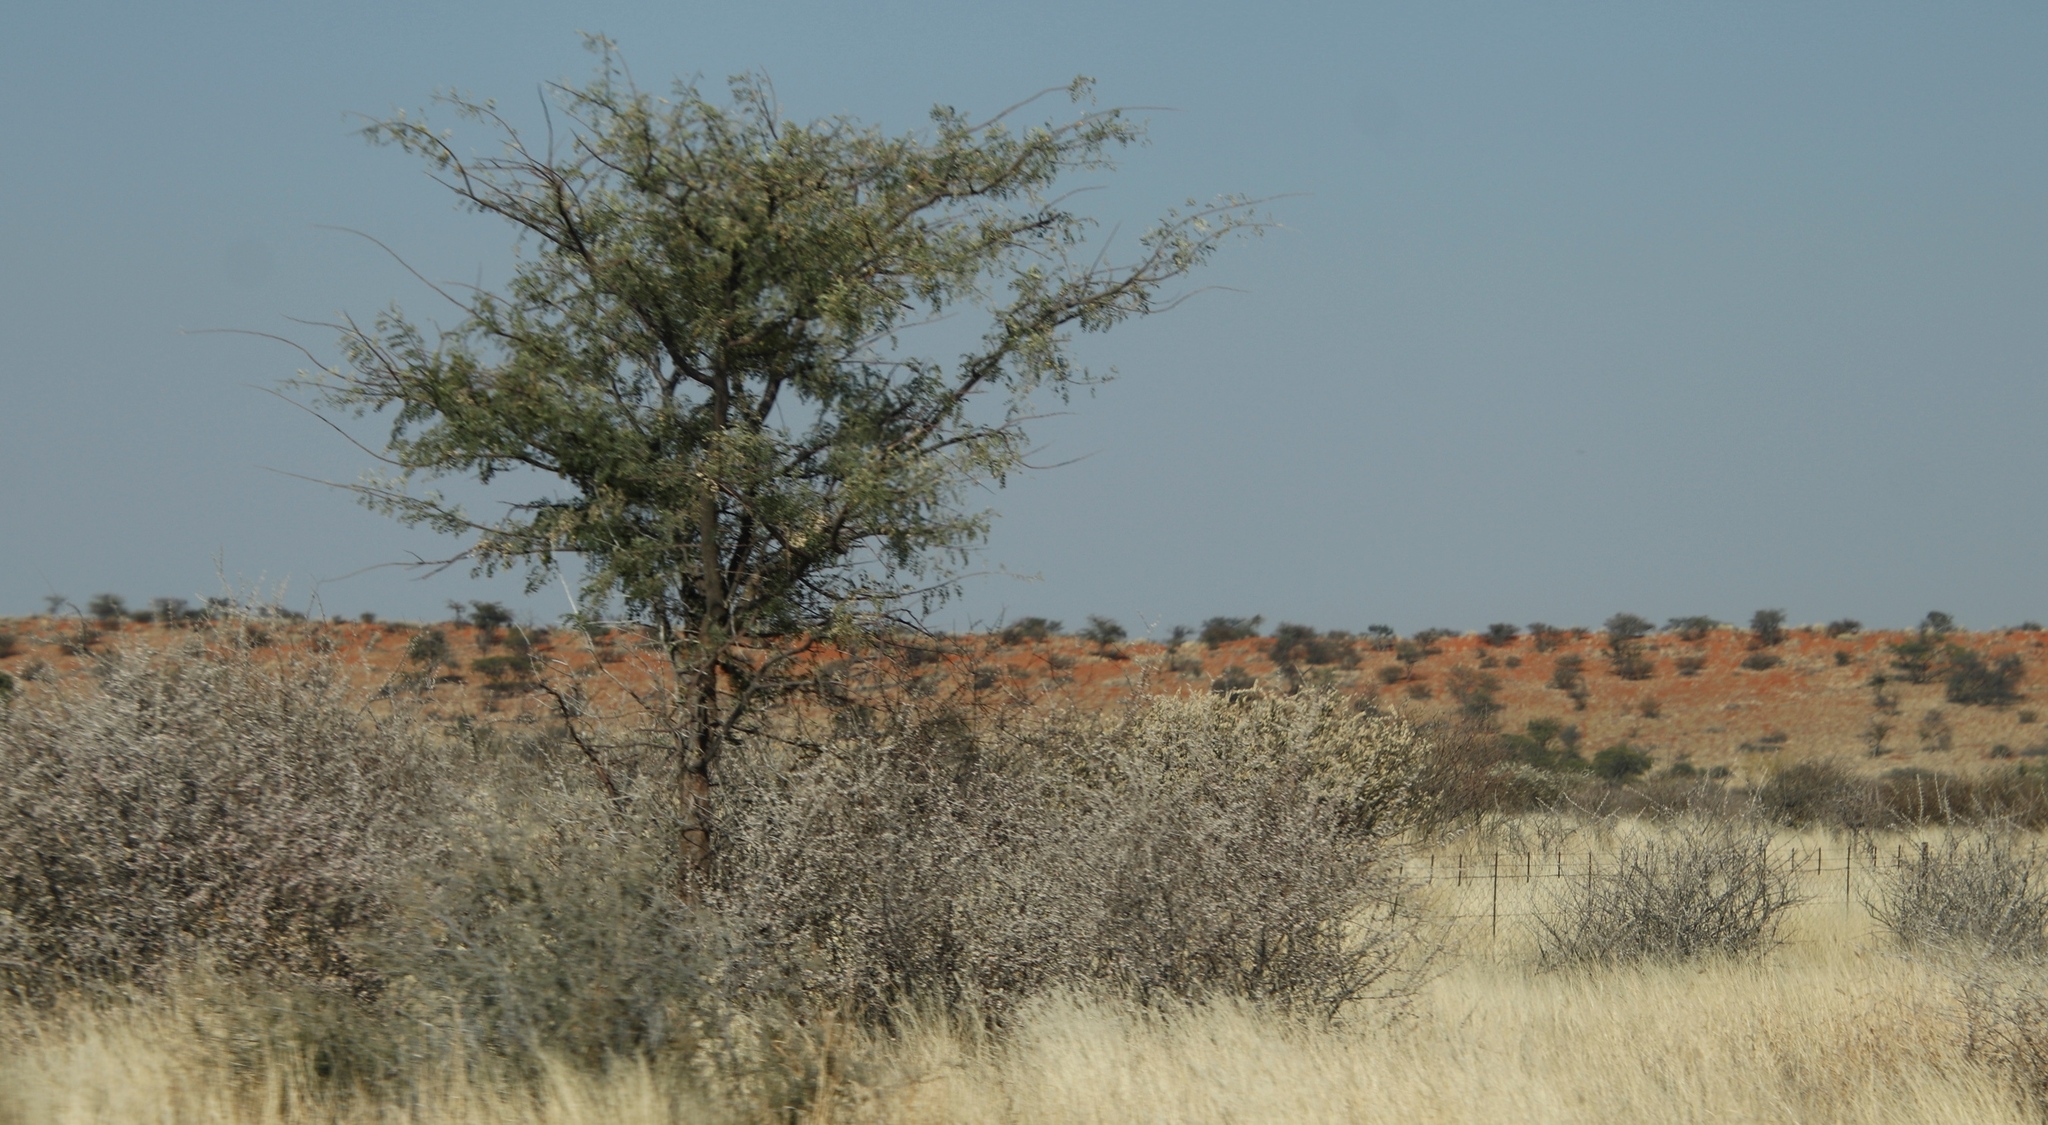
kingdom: Plantae
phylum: Tracheophyta
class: Magnoliopsida
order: Lamiales
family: Bignoniaceae
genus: Catophractes
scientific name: Catophractes alexandri
